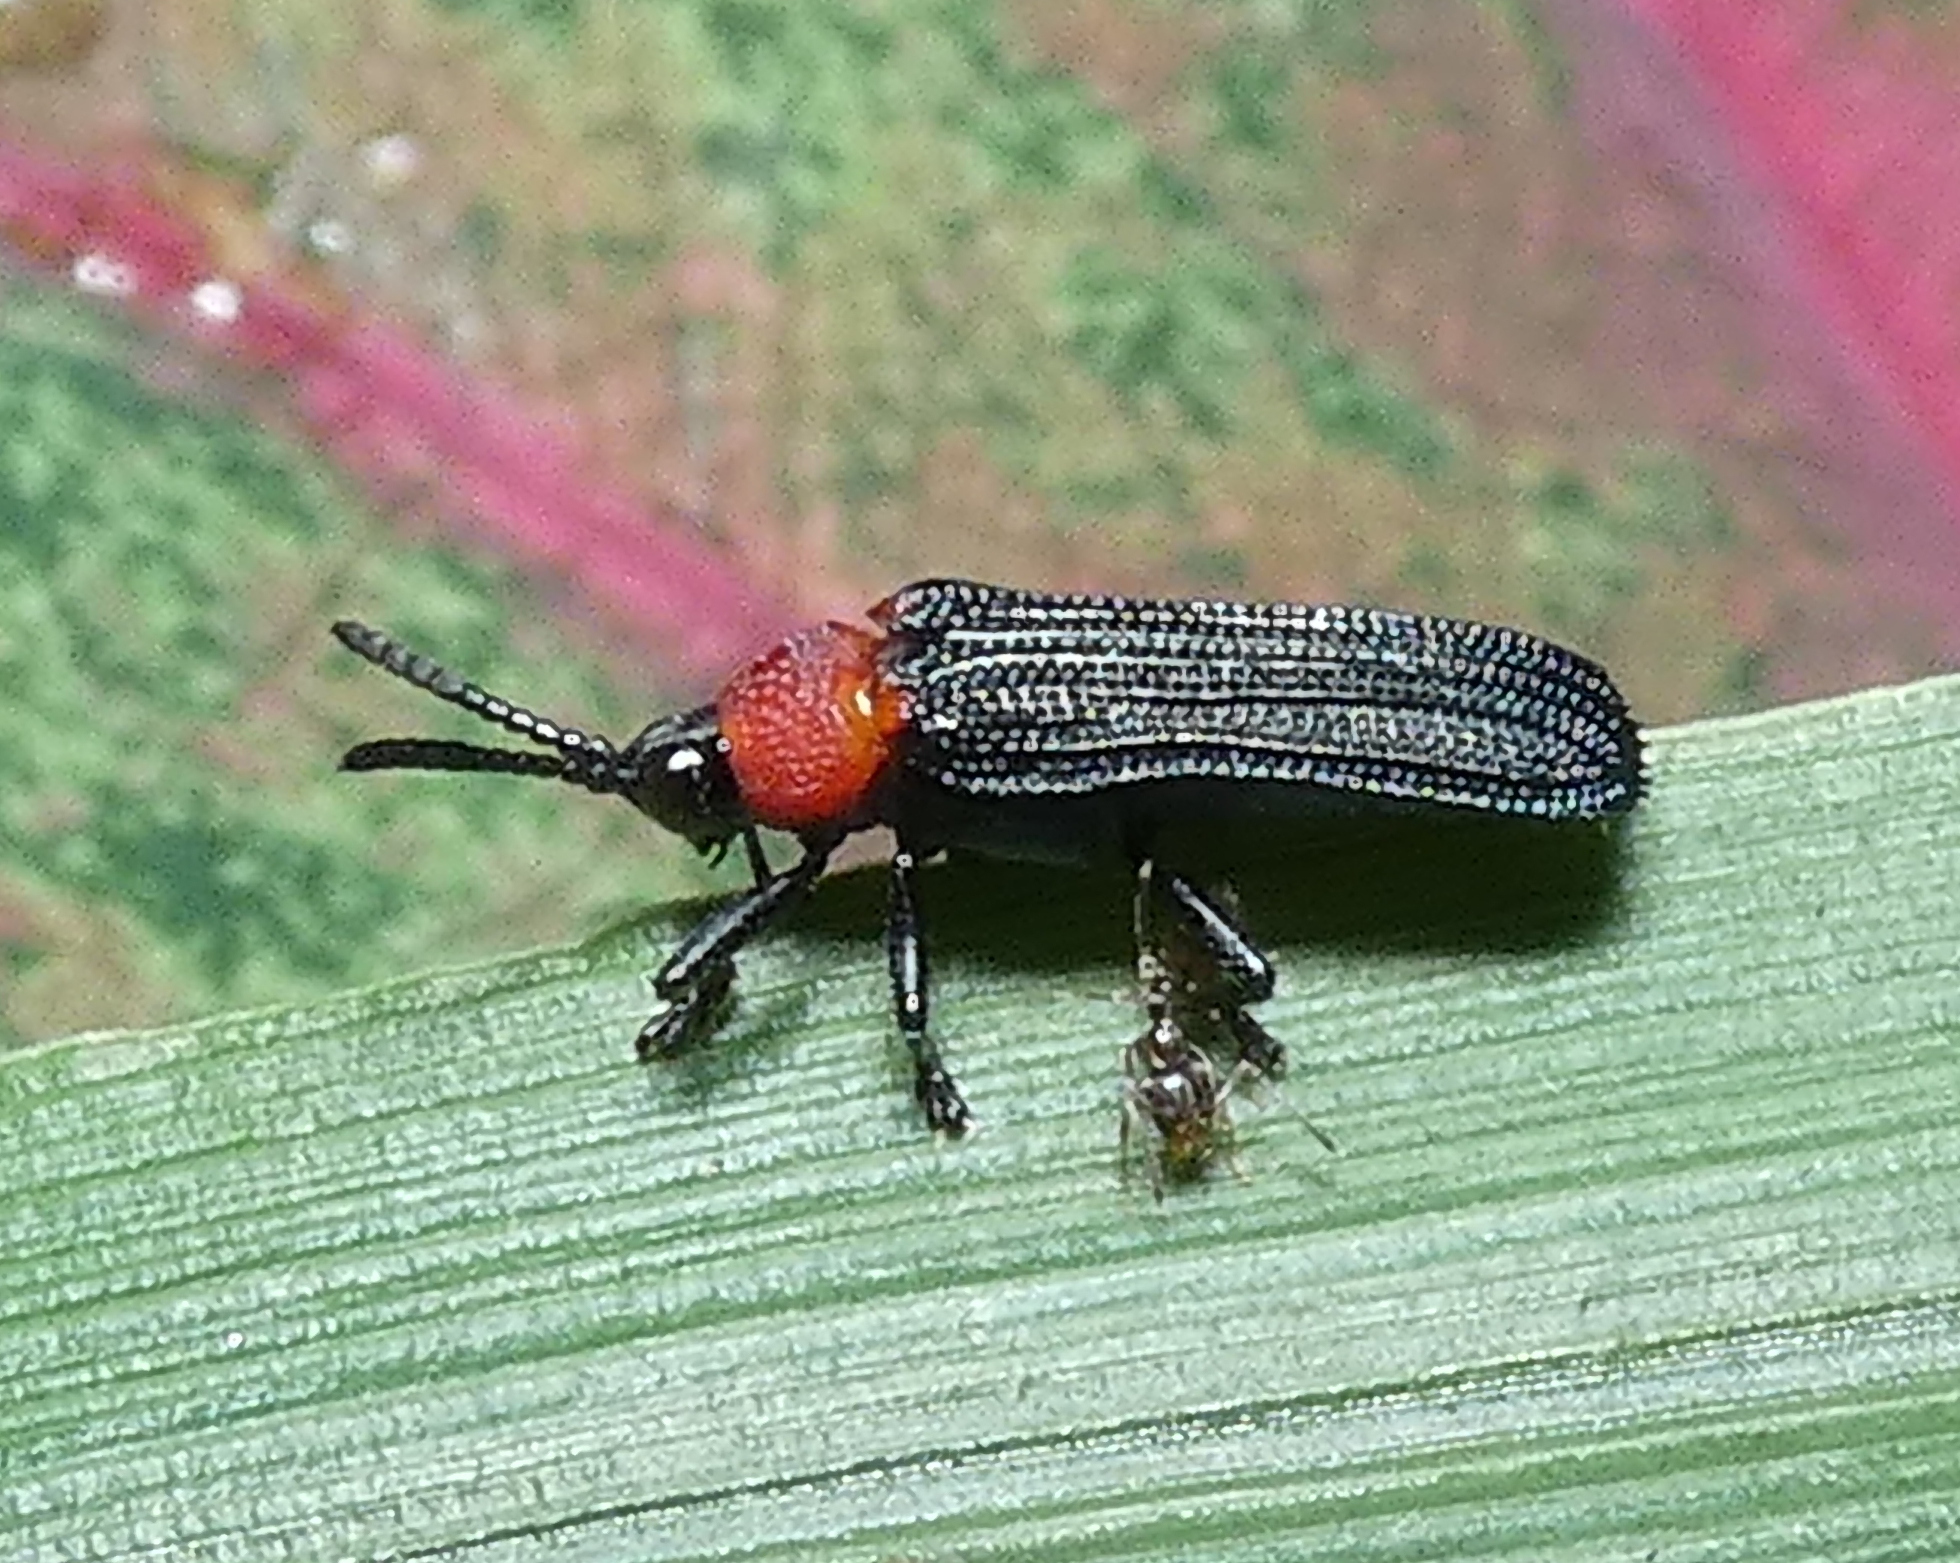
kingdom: Animalia
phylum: Arthropoda
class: Insecta
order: Coleoptera
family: Chrysomelidae
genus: Chalepus
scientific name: Chalepus notula
